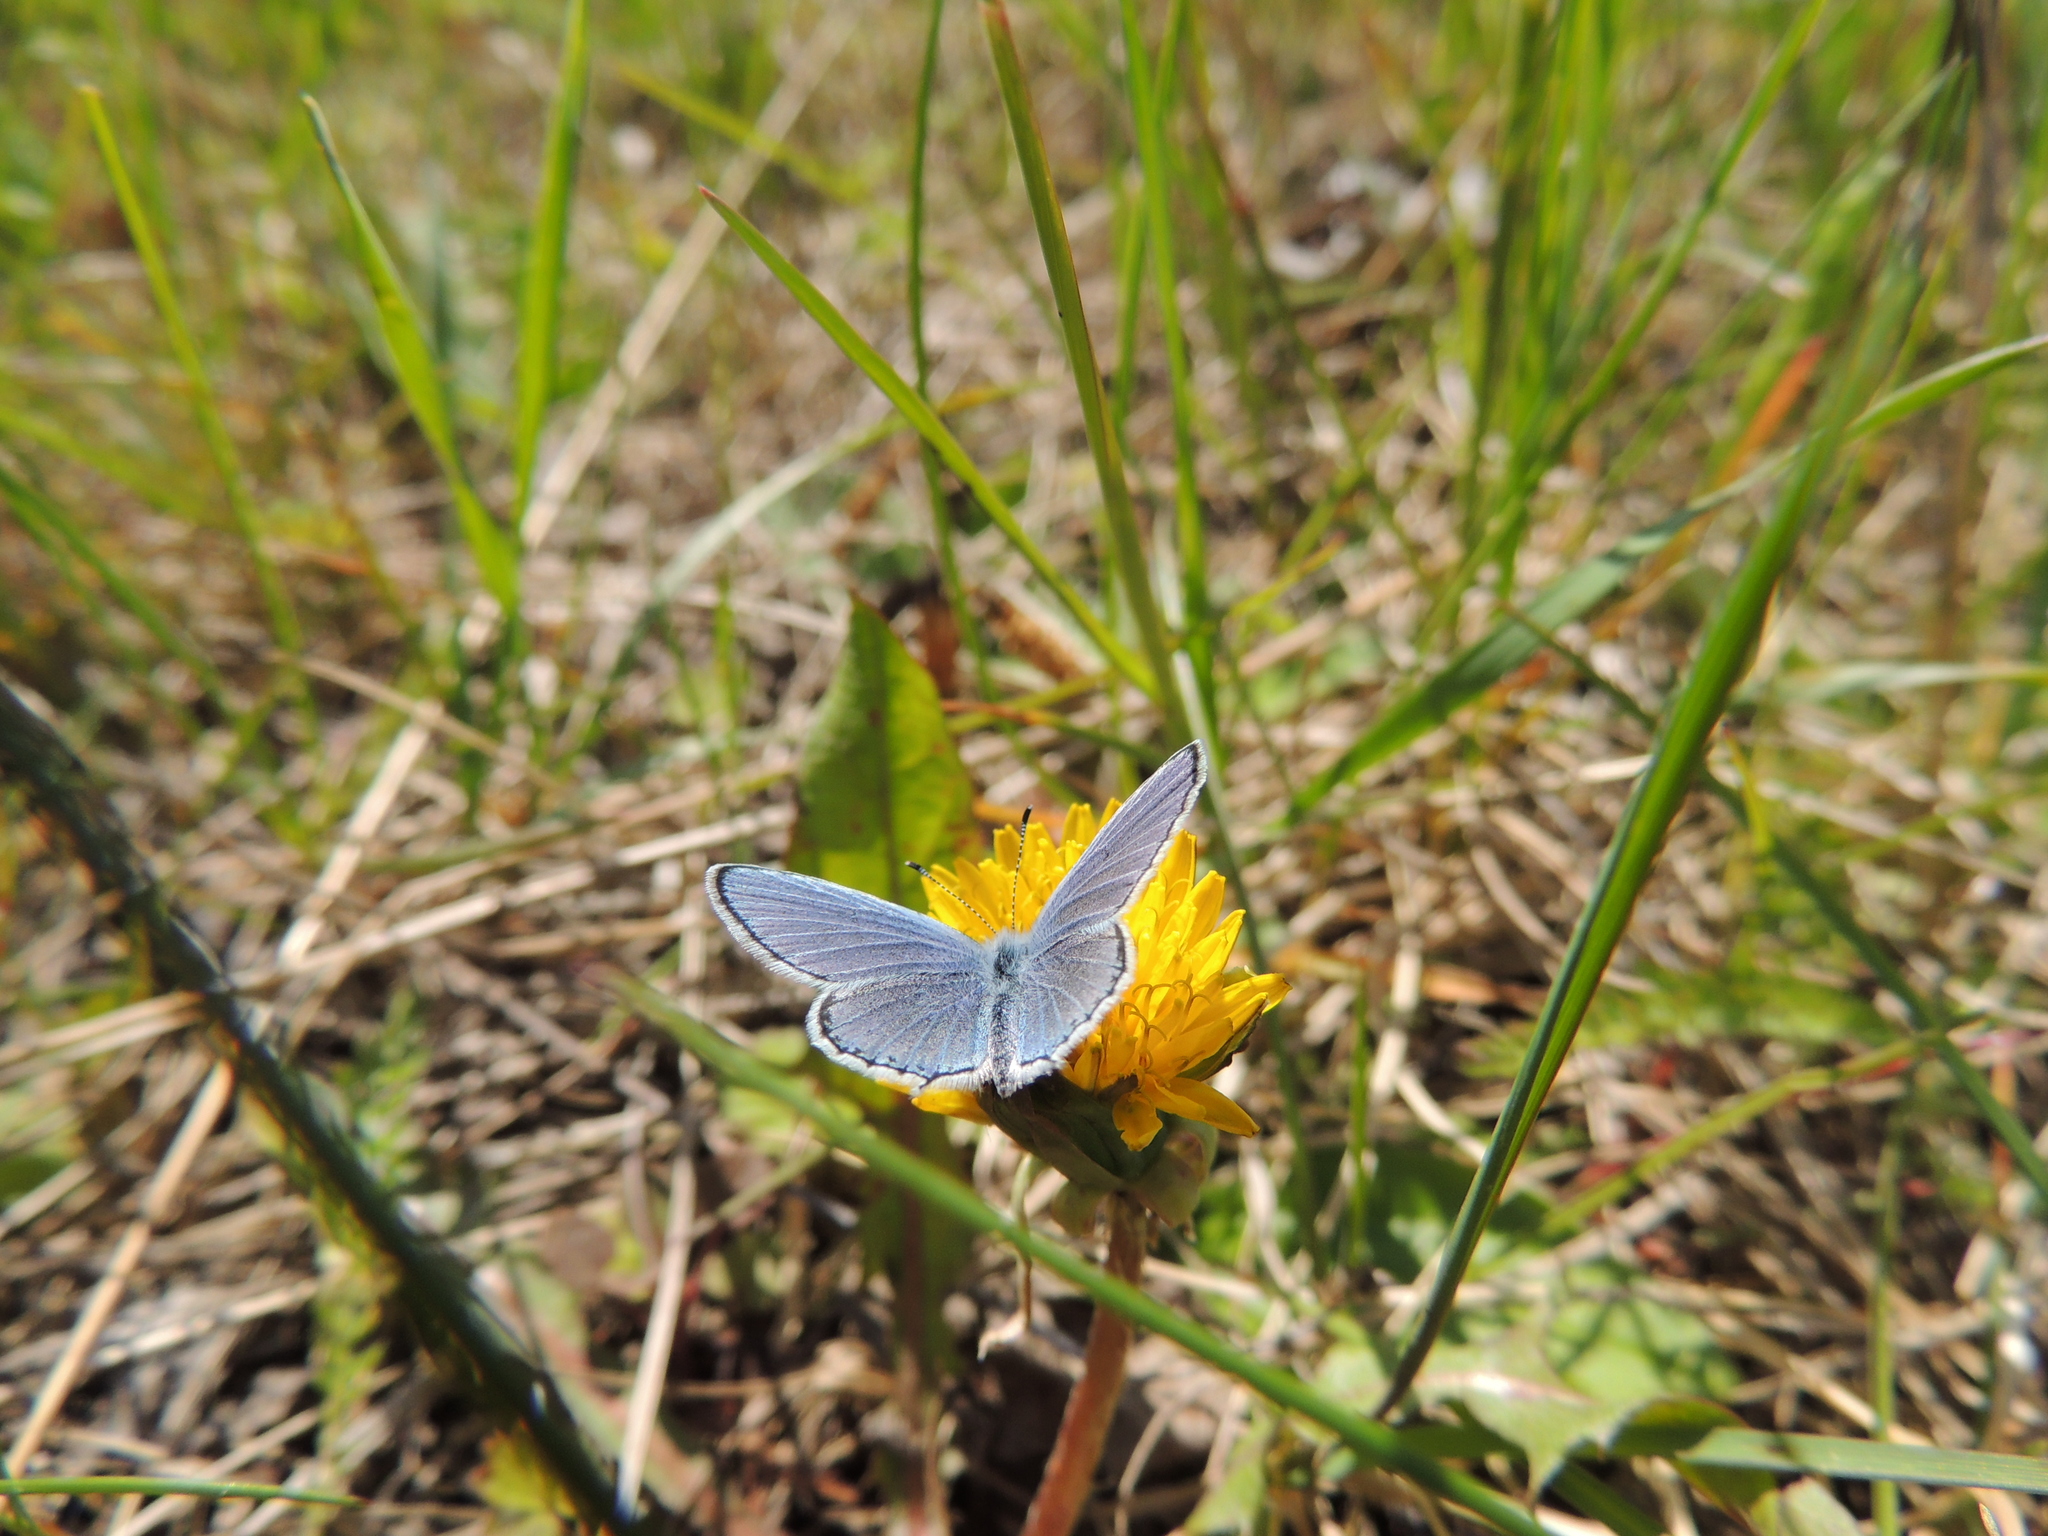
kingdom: Animalia
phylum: Arthropoda
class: Insecta
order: Lepidoptera
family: Lycaenidae
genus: Elkalyce
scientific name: Elkalyce argiades
